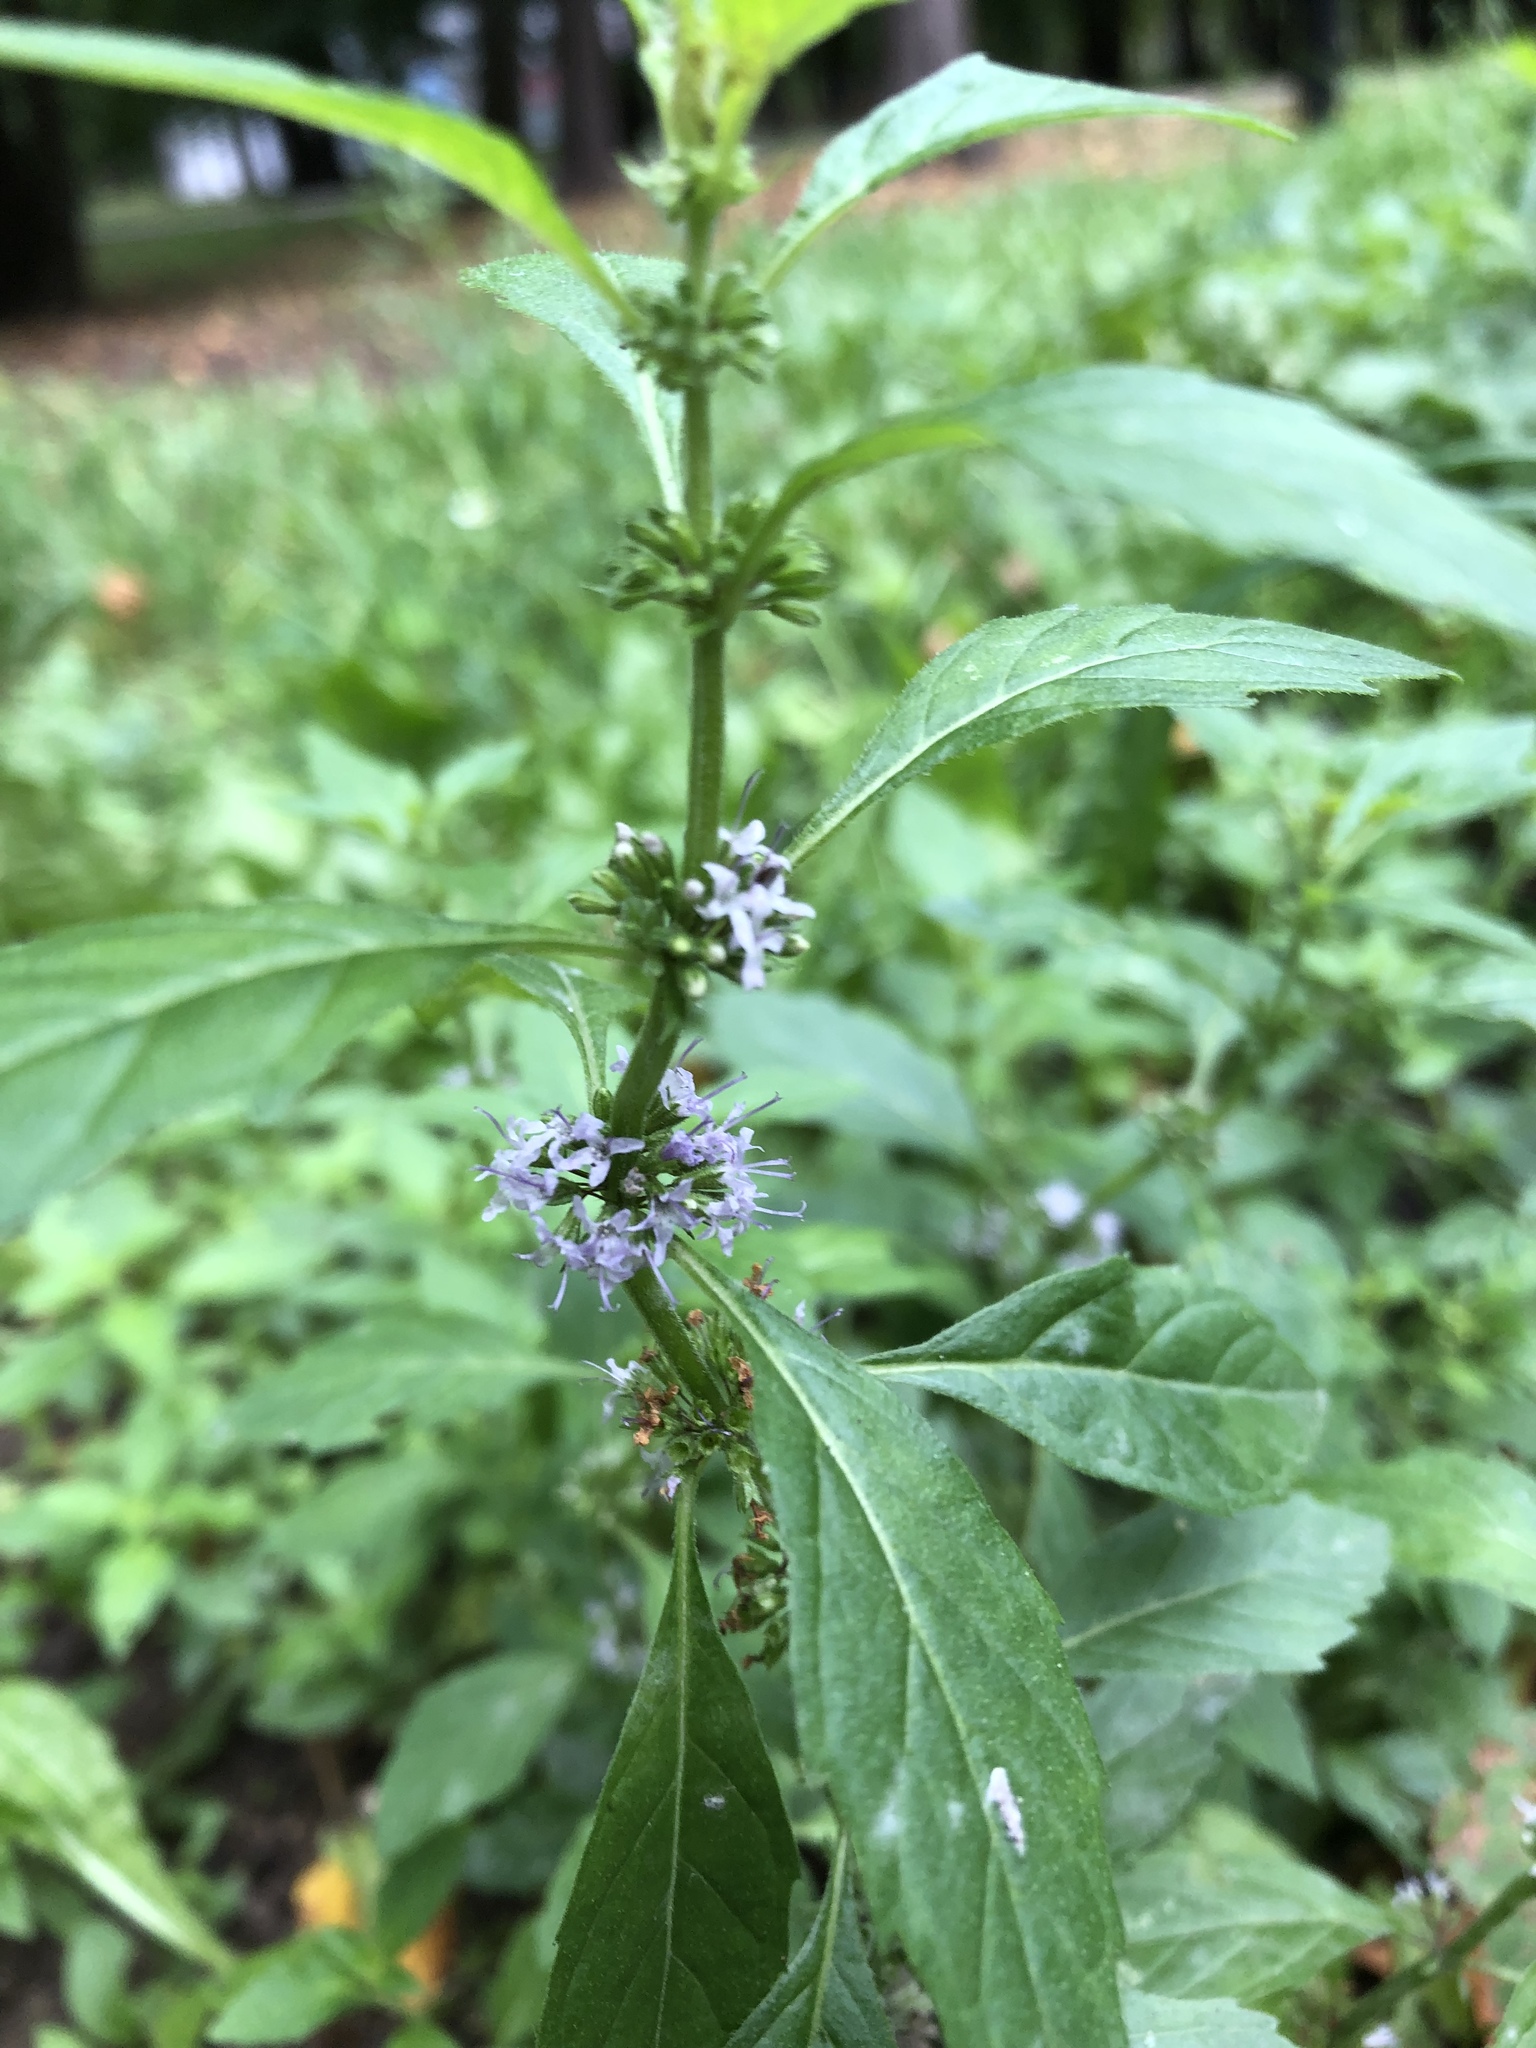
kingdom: Plantae
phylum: Tracheophyta
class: Magnoliopsida
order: Lamiales
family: Lamiaceae
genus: Mentha
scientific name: Mentha arvensis
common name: Corn mint
